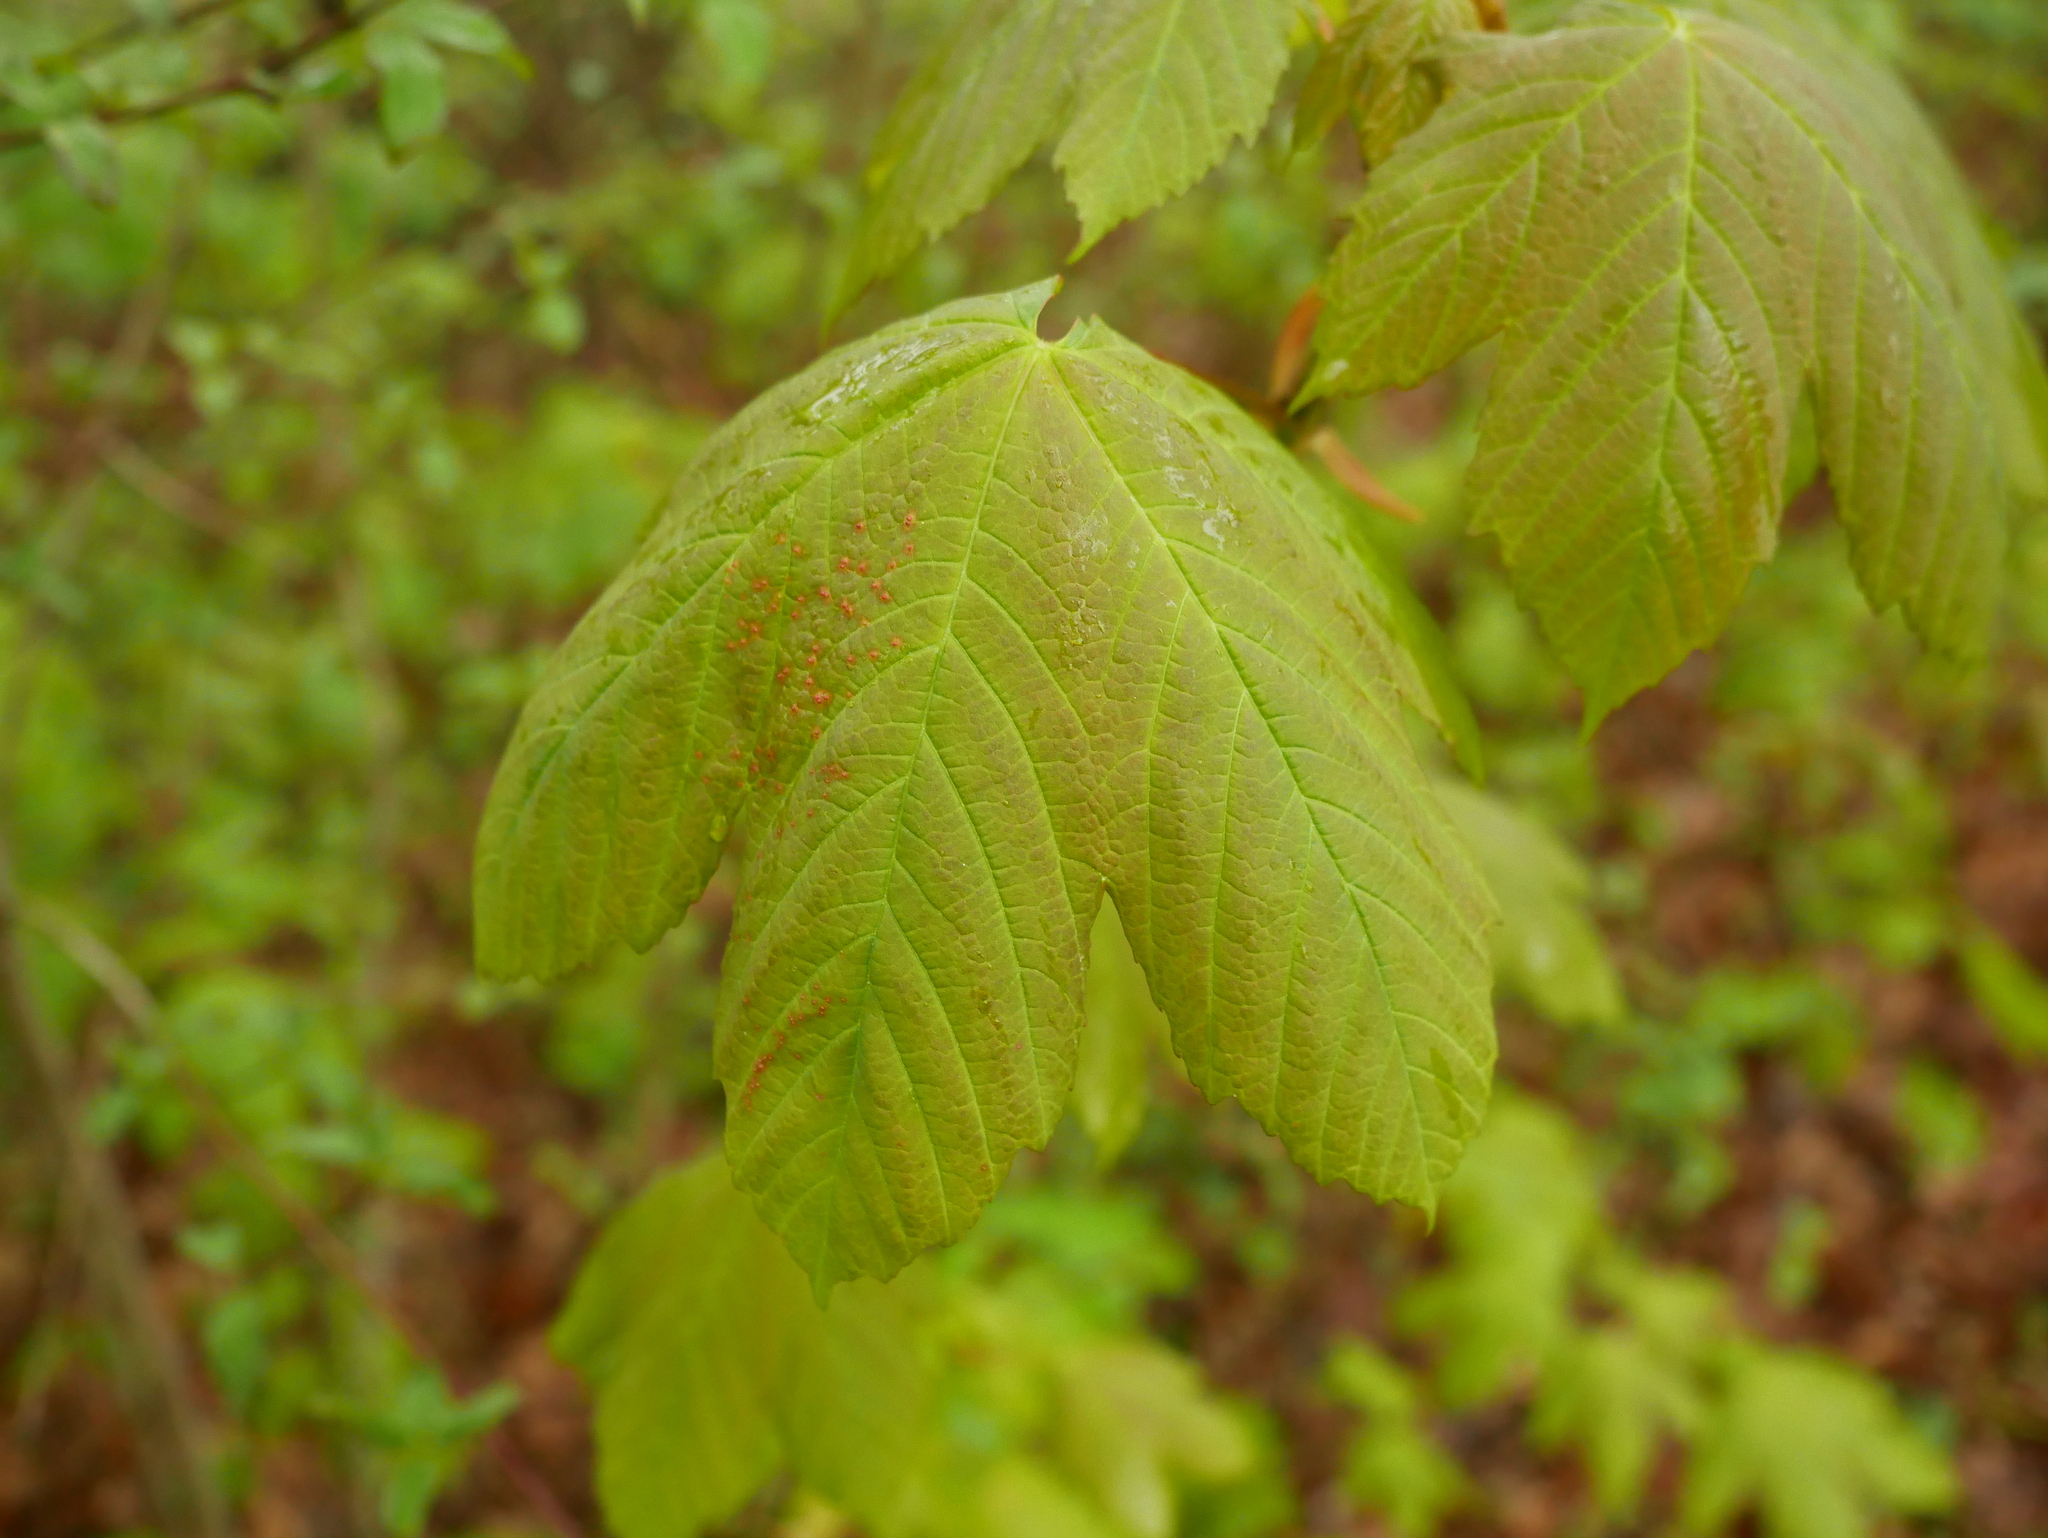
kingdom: Animalia
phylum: Arthropoda
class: Arachnida
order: Trombidiformes
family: Eriophyidae
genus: Aceria
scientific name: Aceria cephaloneus
